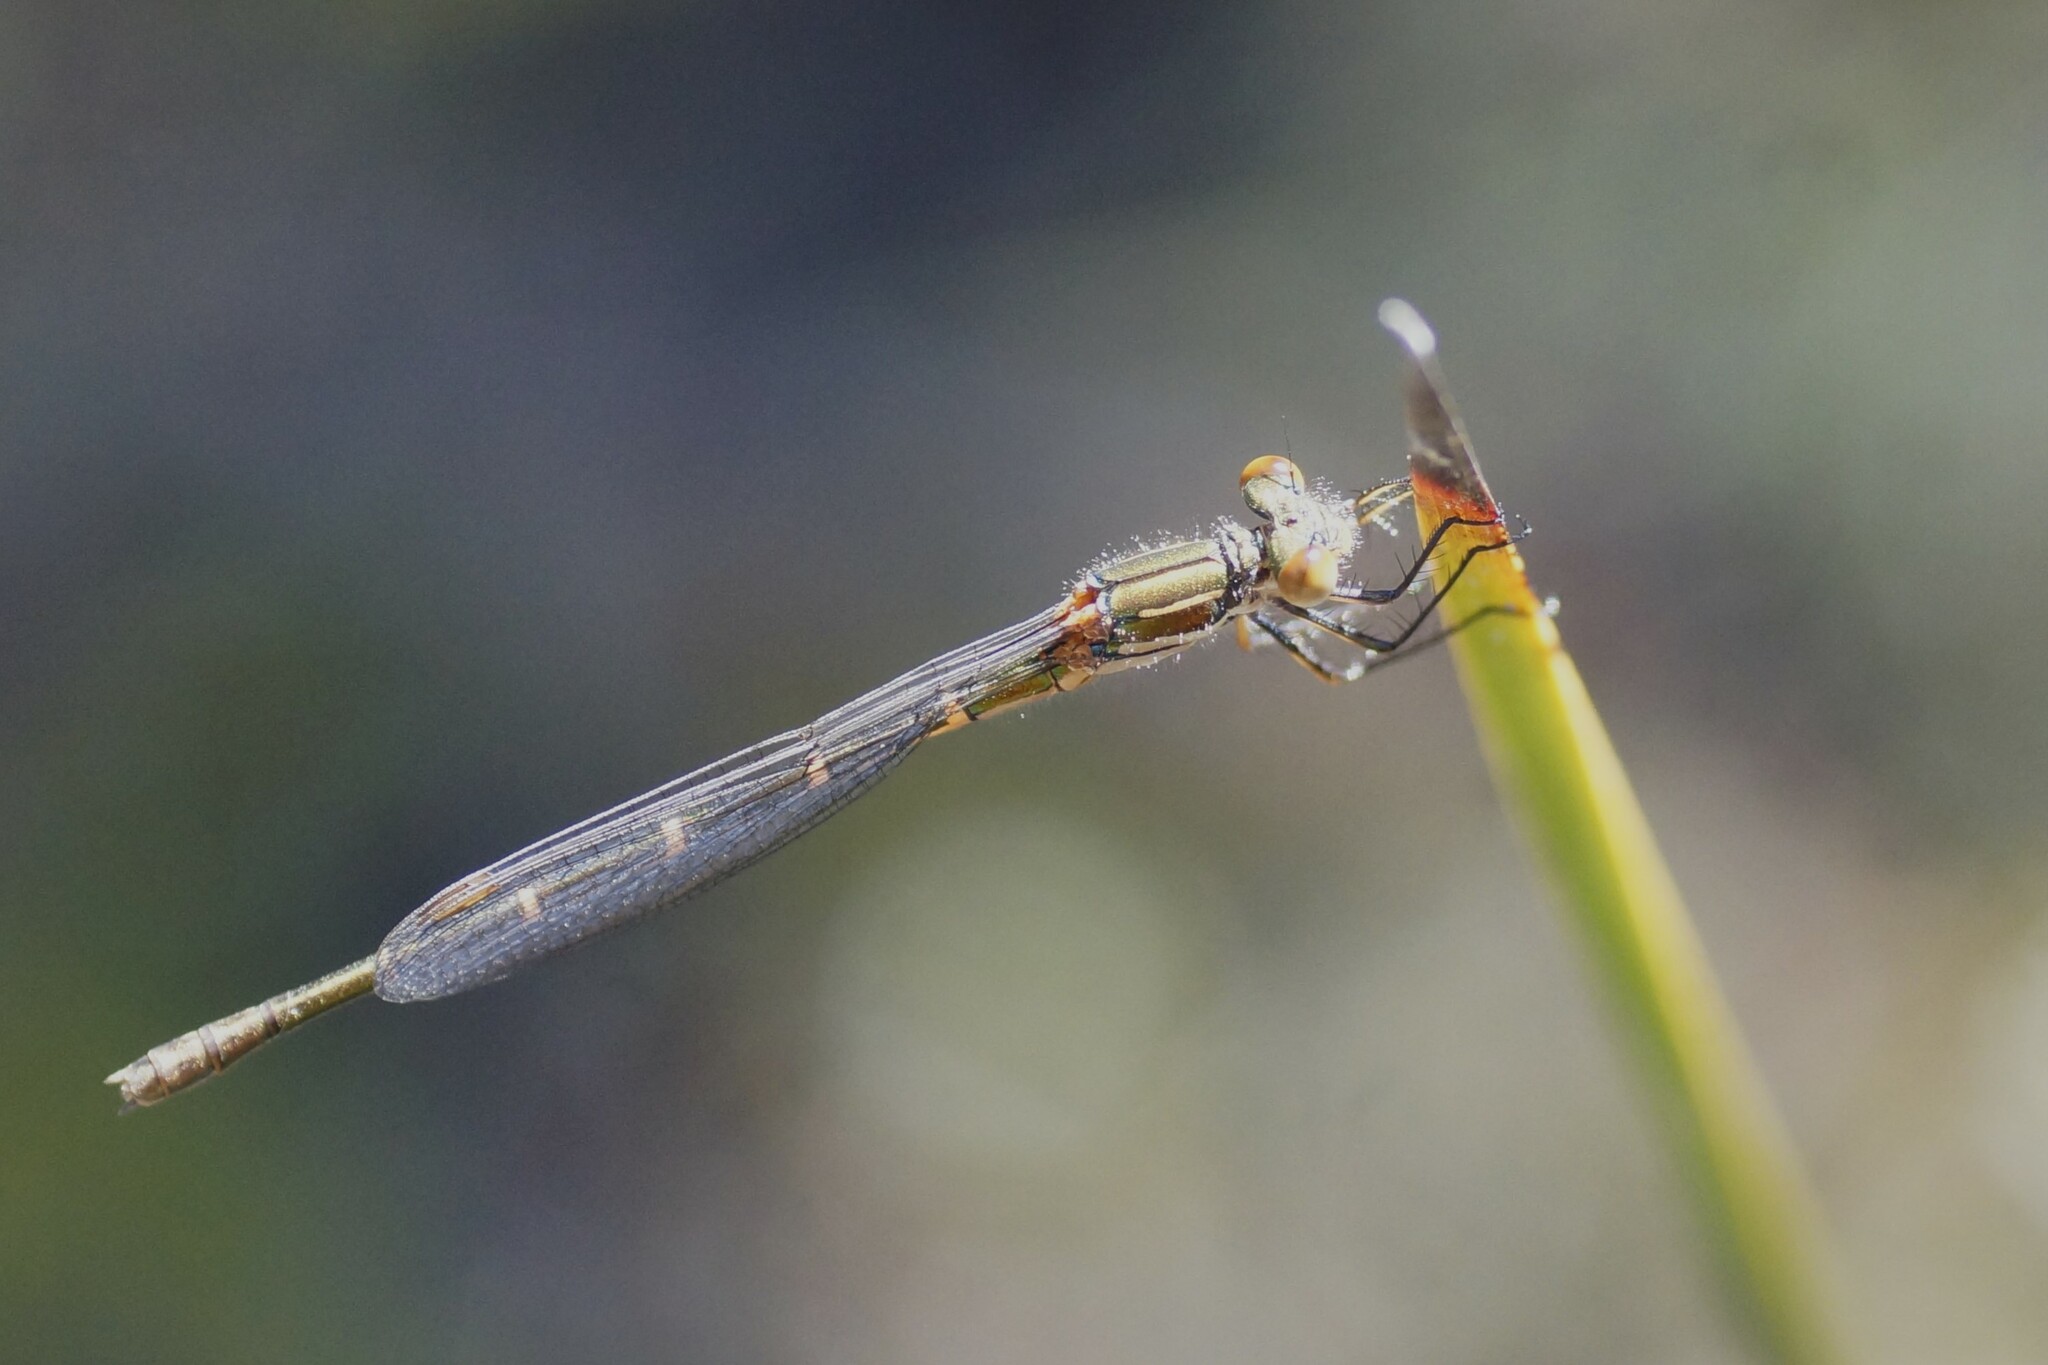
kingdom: Animalia
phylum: Arthropoda
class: Insecta
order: Odonata
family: Lestidae
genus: Austrolestes
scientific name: Austrolestes psyche
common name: Cup ringtail
